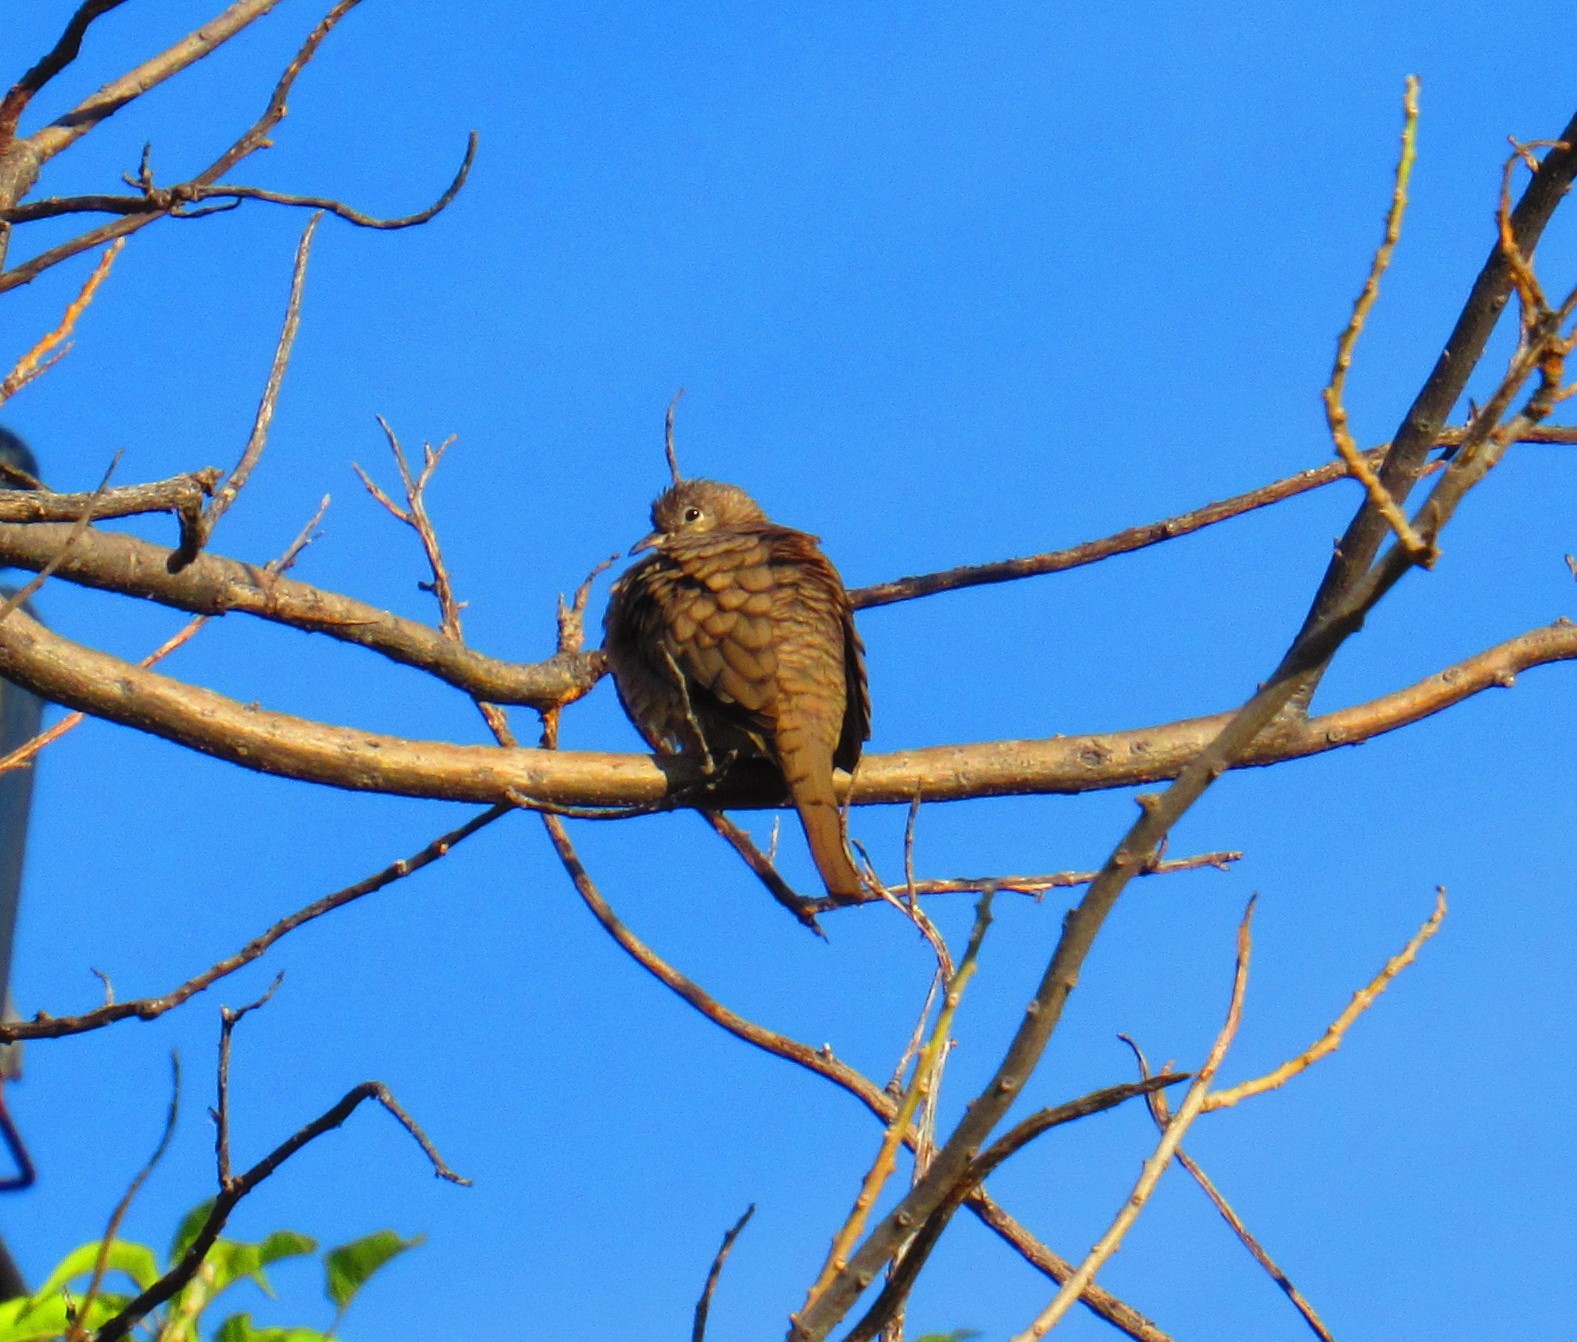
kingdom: Animalia
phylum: Chordata
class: Aves
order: Columbiformes
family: Columbidae
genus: Columbina
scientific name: Columbina inca
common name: Inca dove
